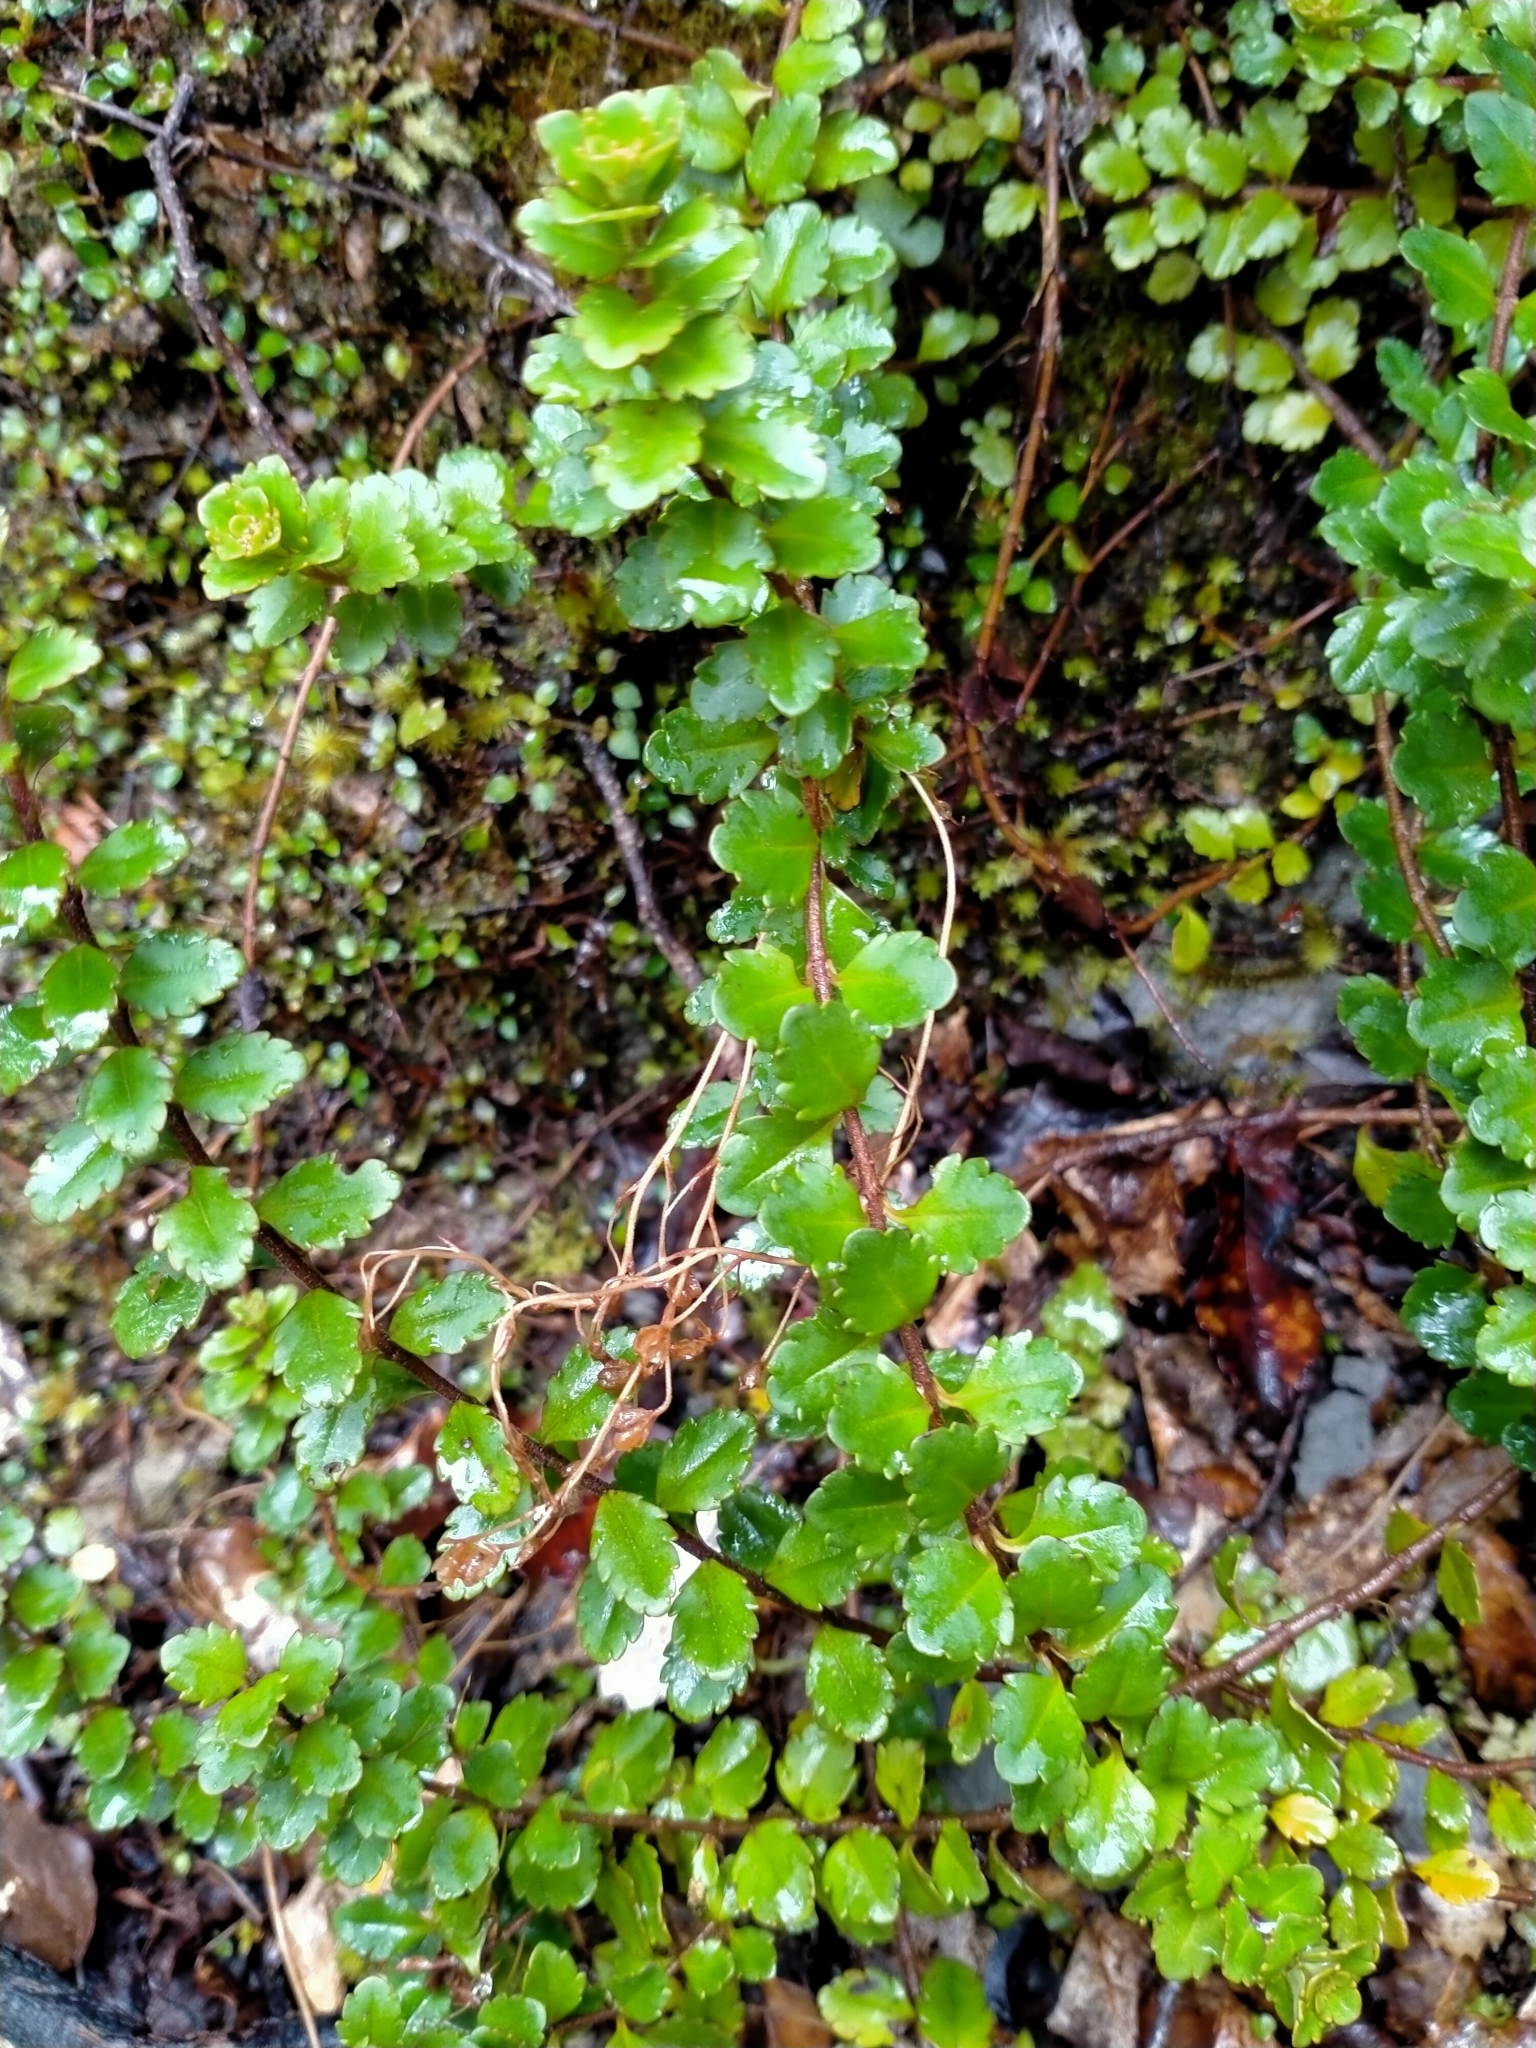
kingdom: Plantae
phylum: Tracheophyta
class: Magnoliopsida
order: Lamiales
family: Plantaginaceae
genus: Veronica
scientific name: Veronica lyallii
